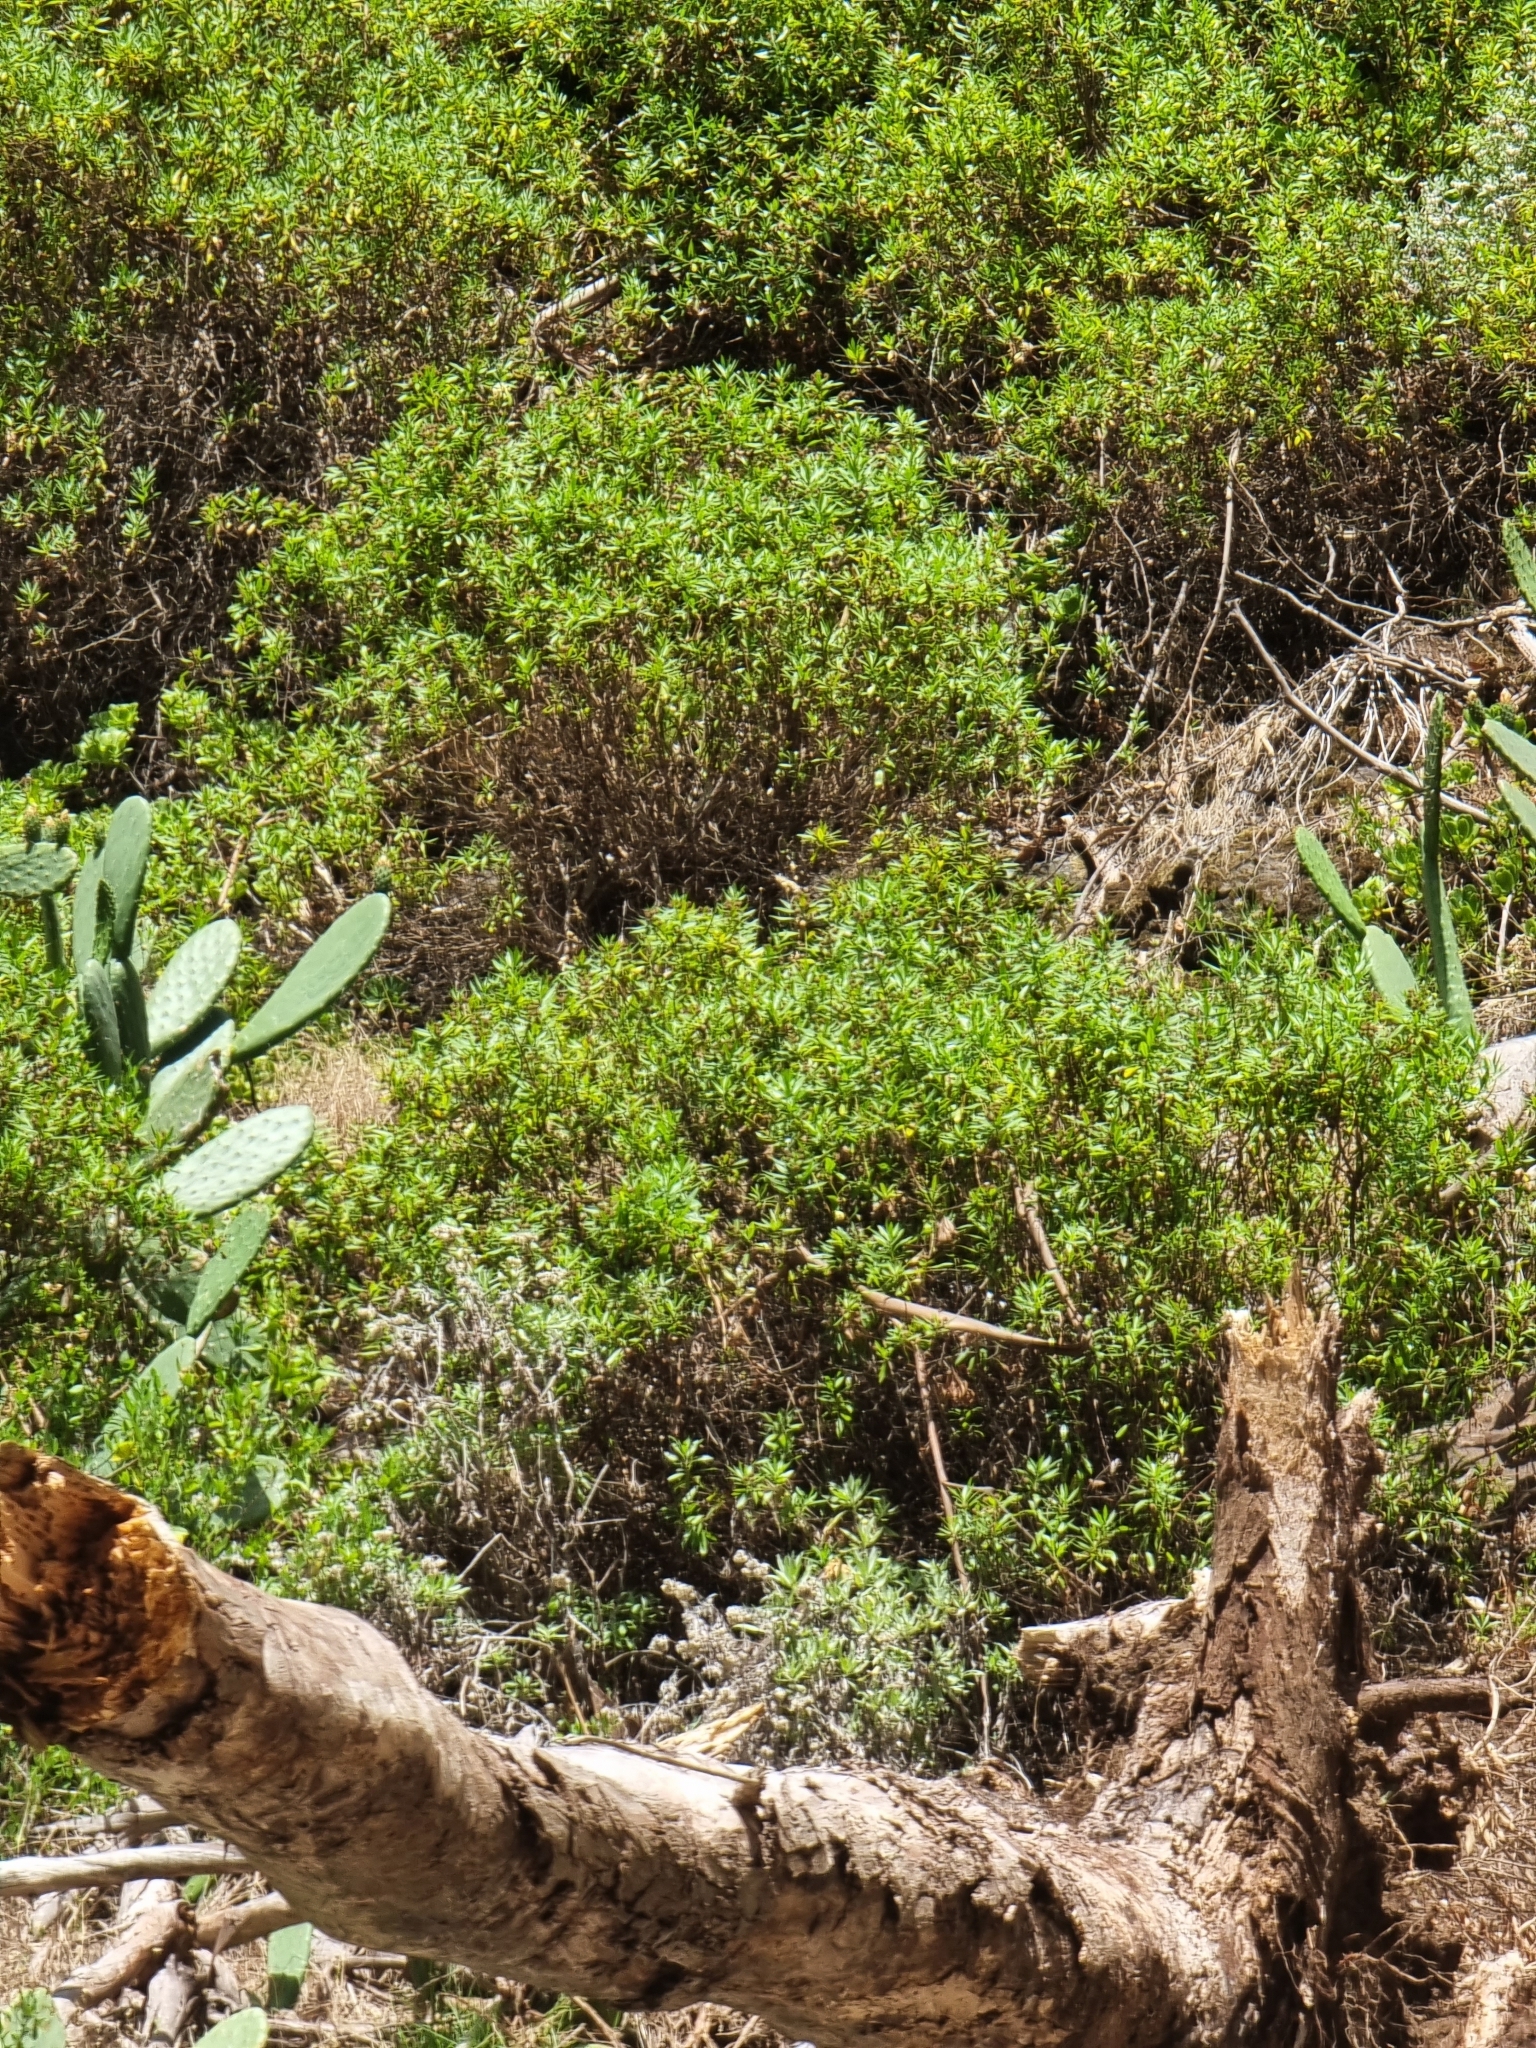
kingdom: Plantae
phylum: Tracheophyta
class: Magnoliopsida
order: Lamiales
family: Plantaginaceae
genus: Globularia
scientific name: Globularia salicina
